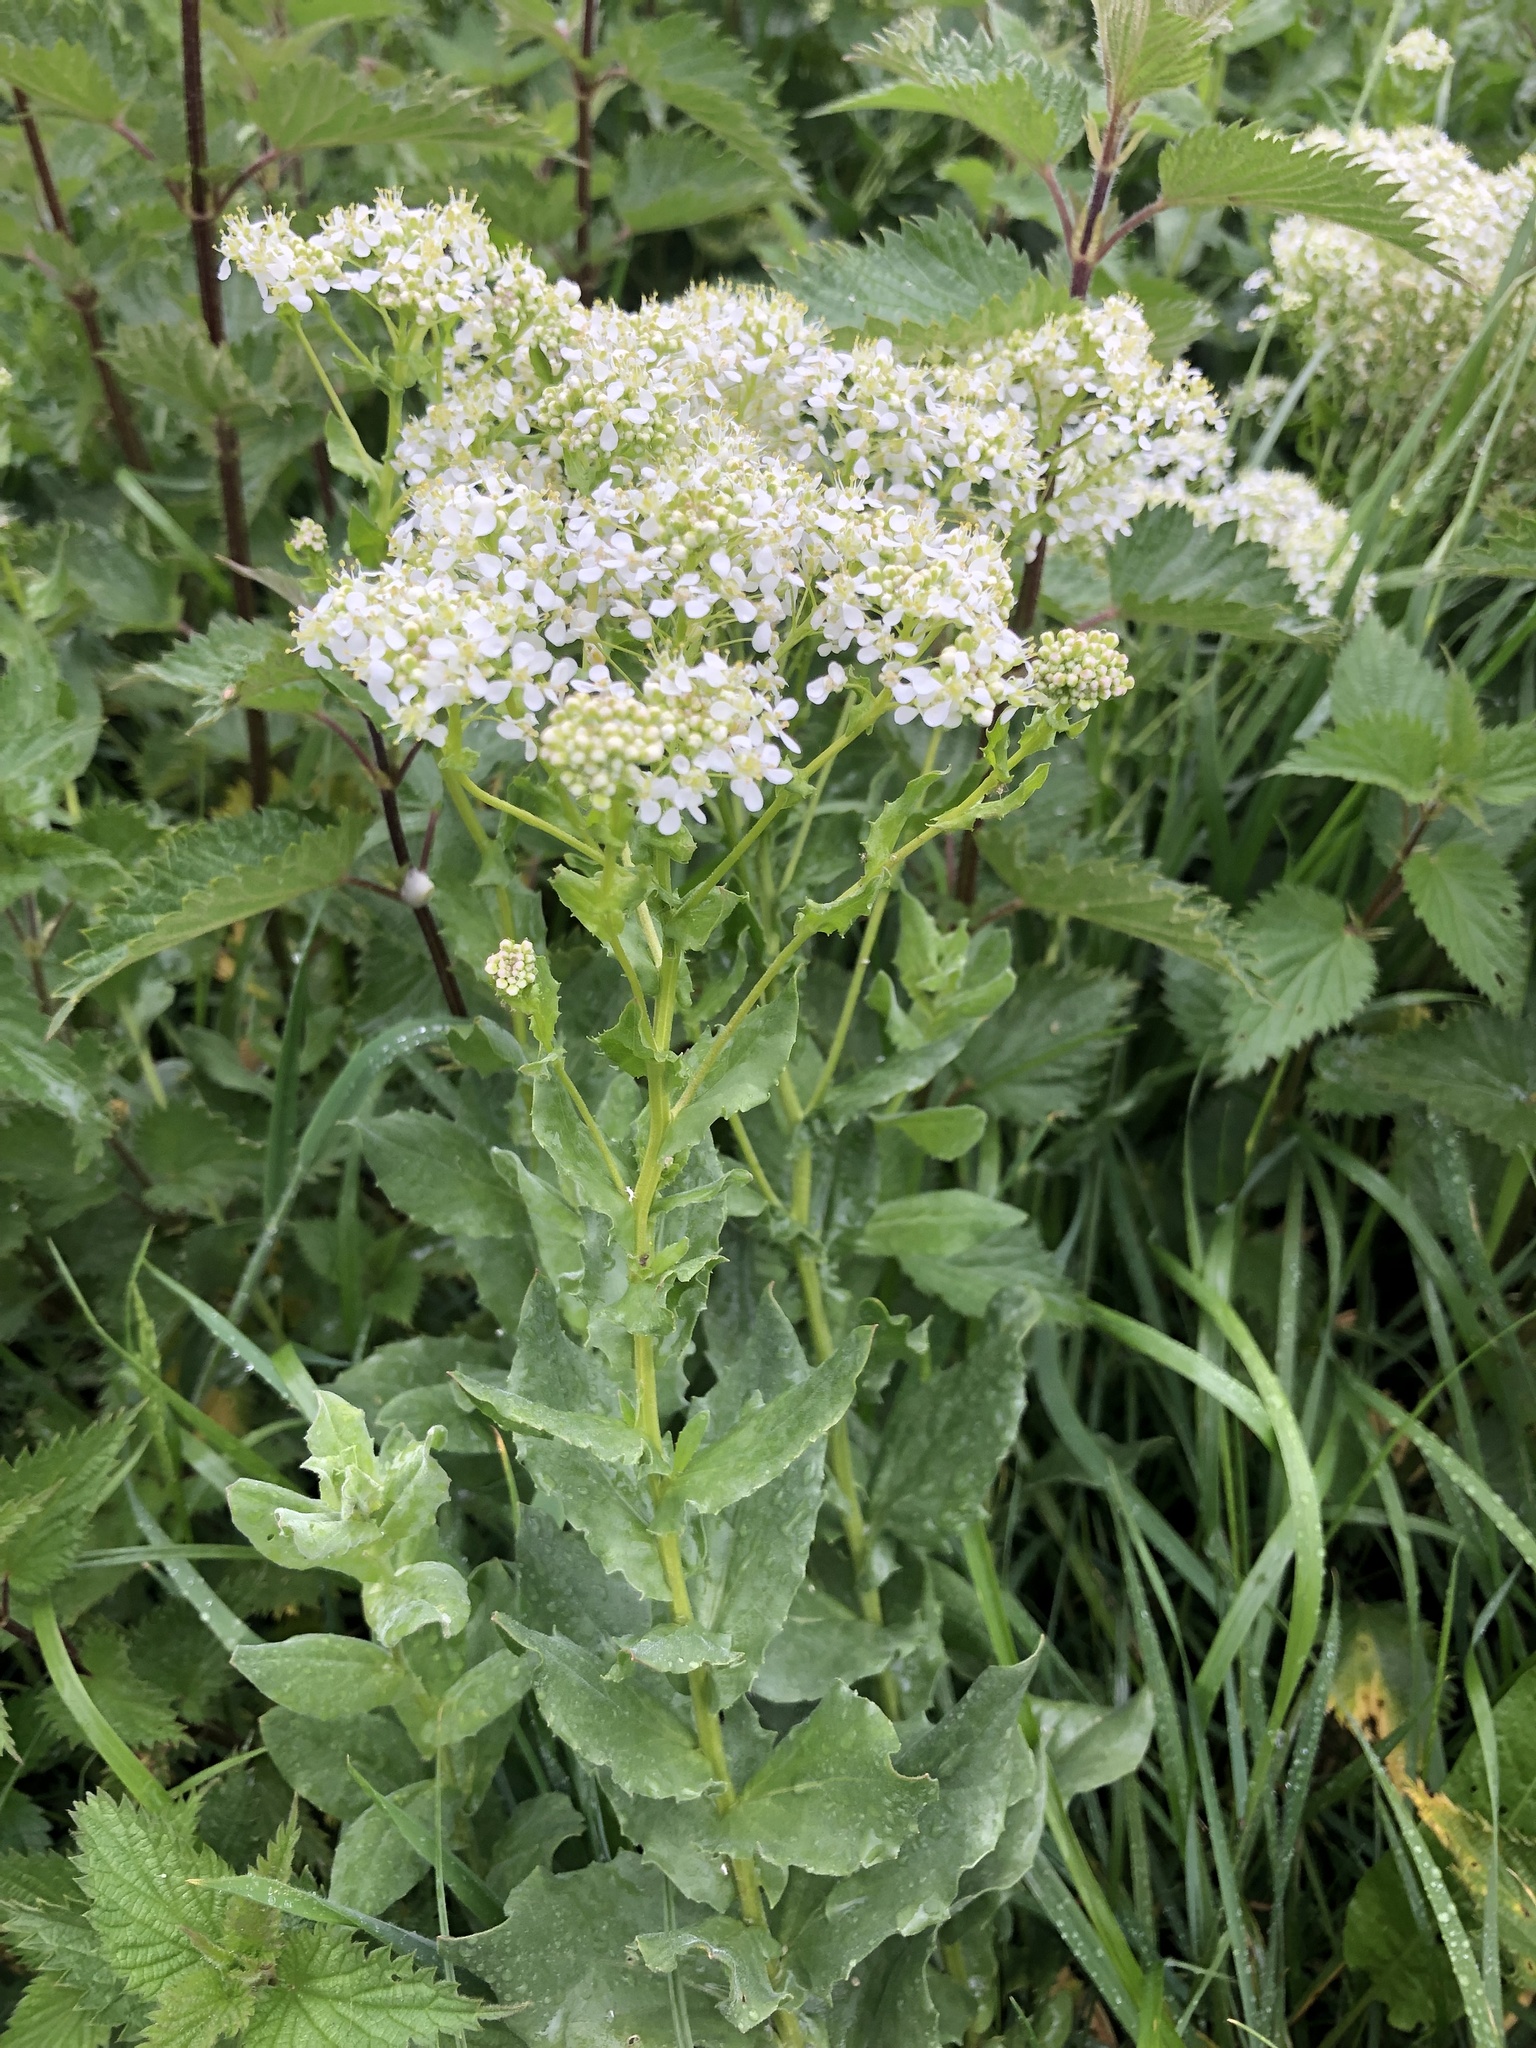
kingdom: Plantae
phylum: Tracheophyta
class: Magnoliopsida
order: Brassicales
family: Brassicaceae
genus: Lepidium
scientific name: Lepidium draba
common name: Hoary cress
